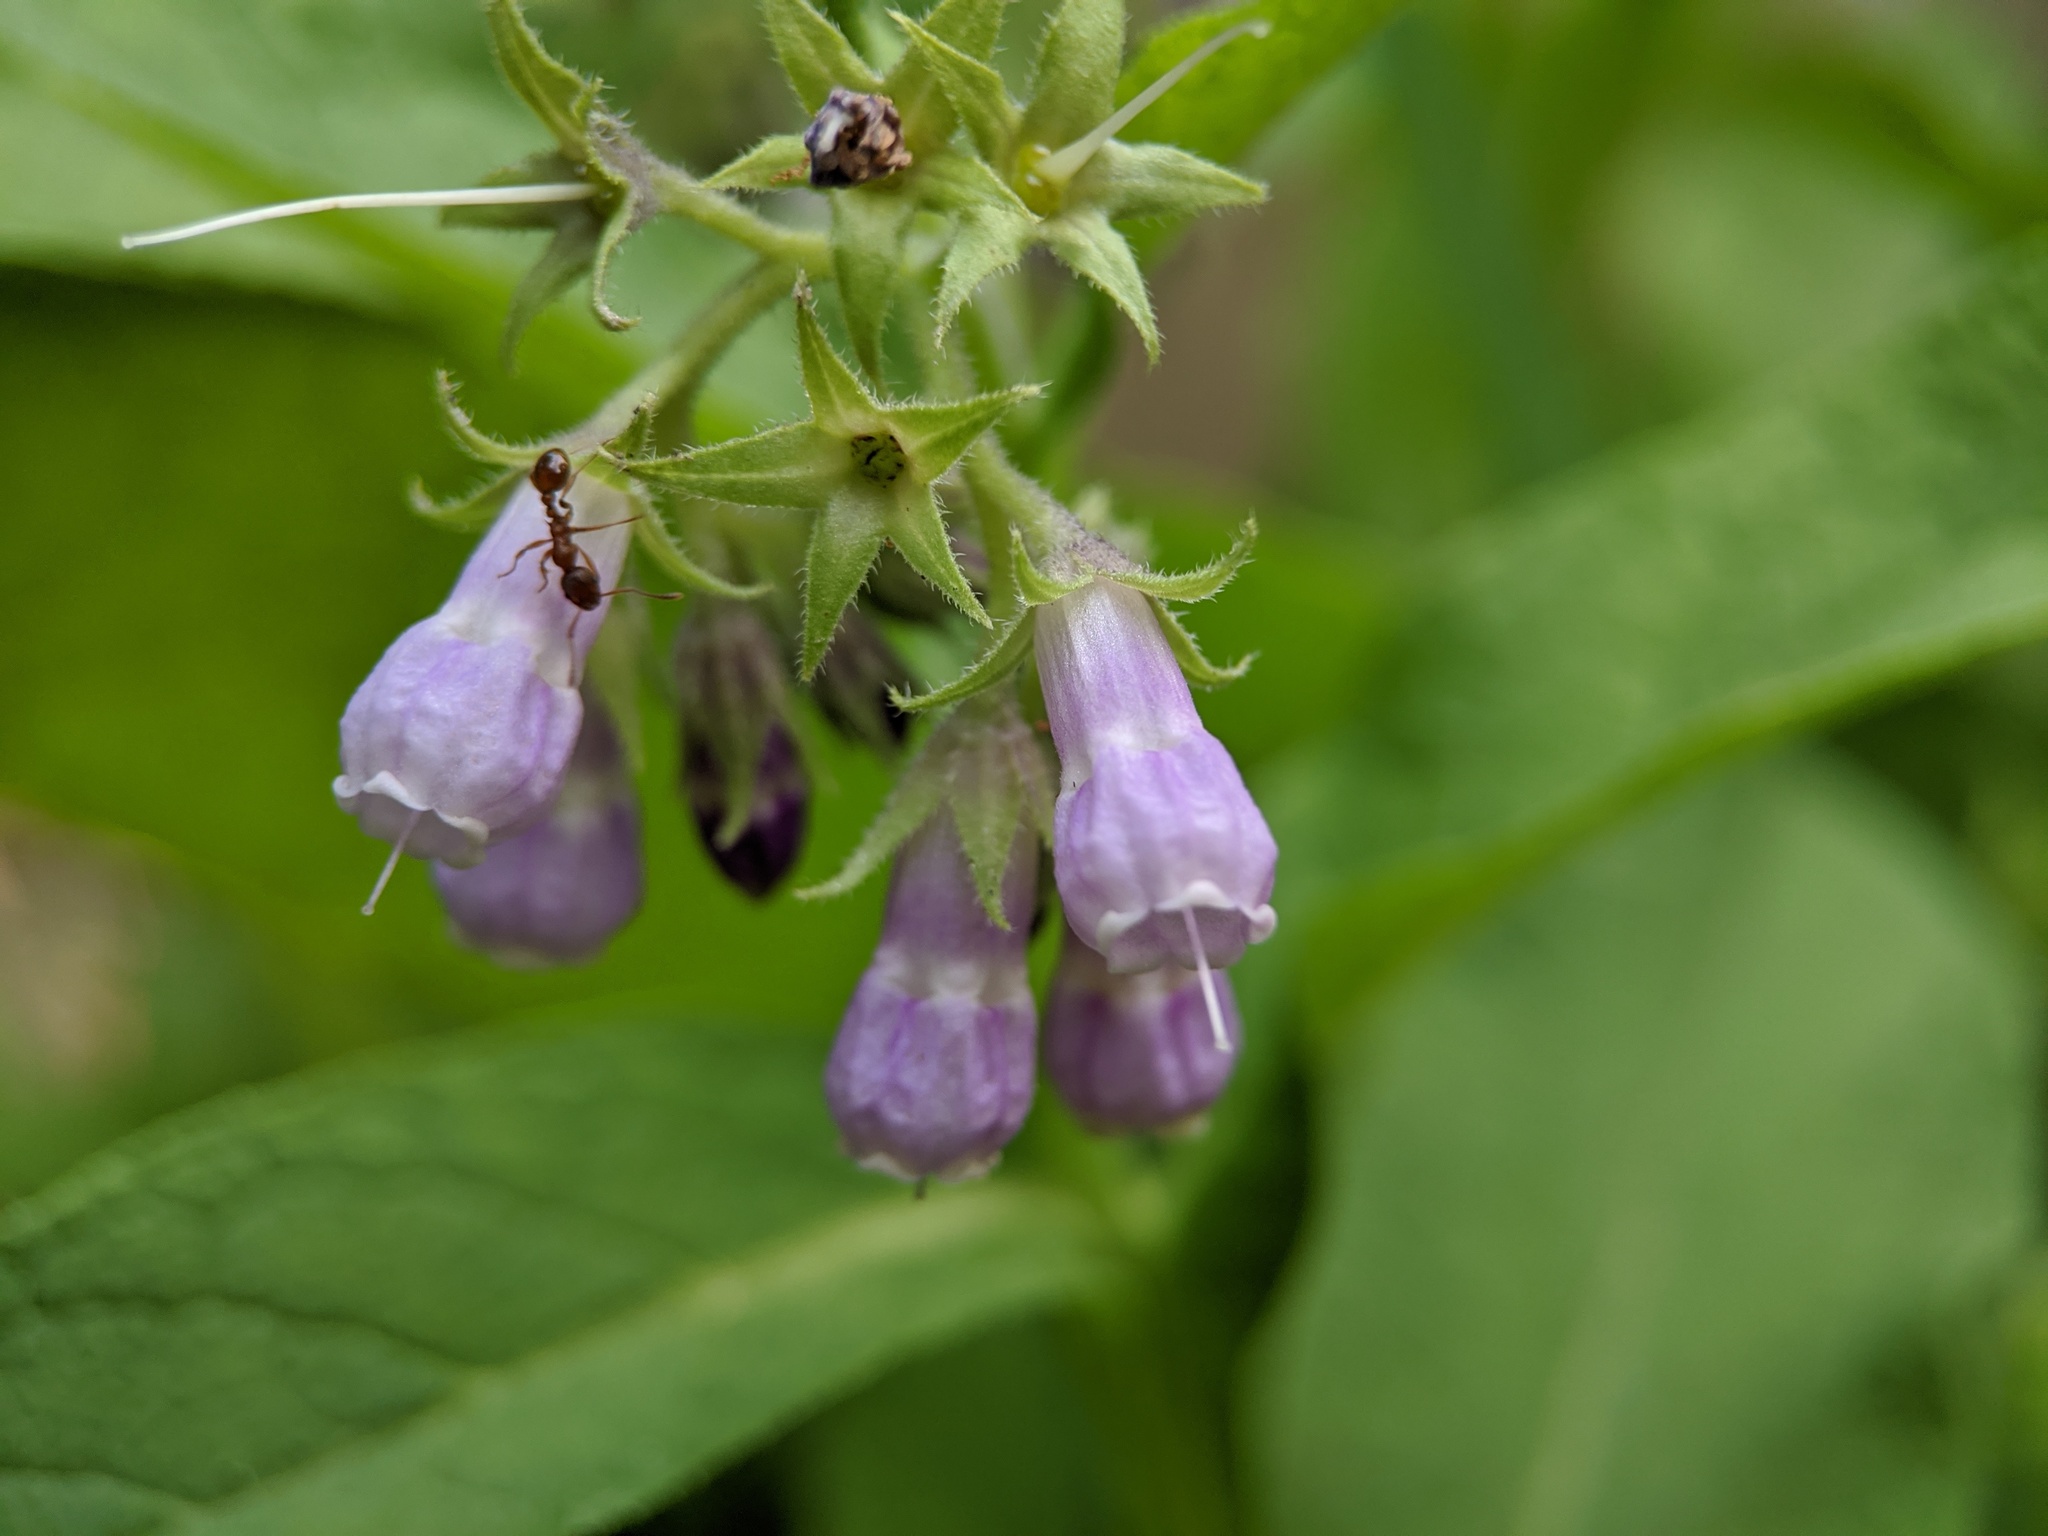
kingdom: Plantae
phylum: Tracheophyta
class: Magnoliopsida
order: Boraginales
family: Boraginaceae
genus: Symphytum
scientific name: Symphytum officinale
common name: Common comfrey
